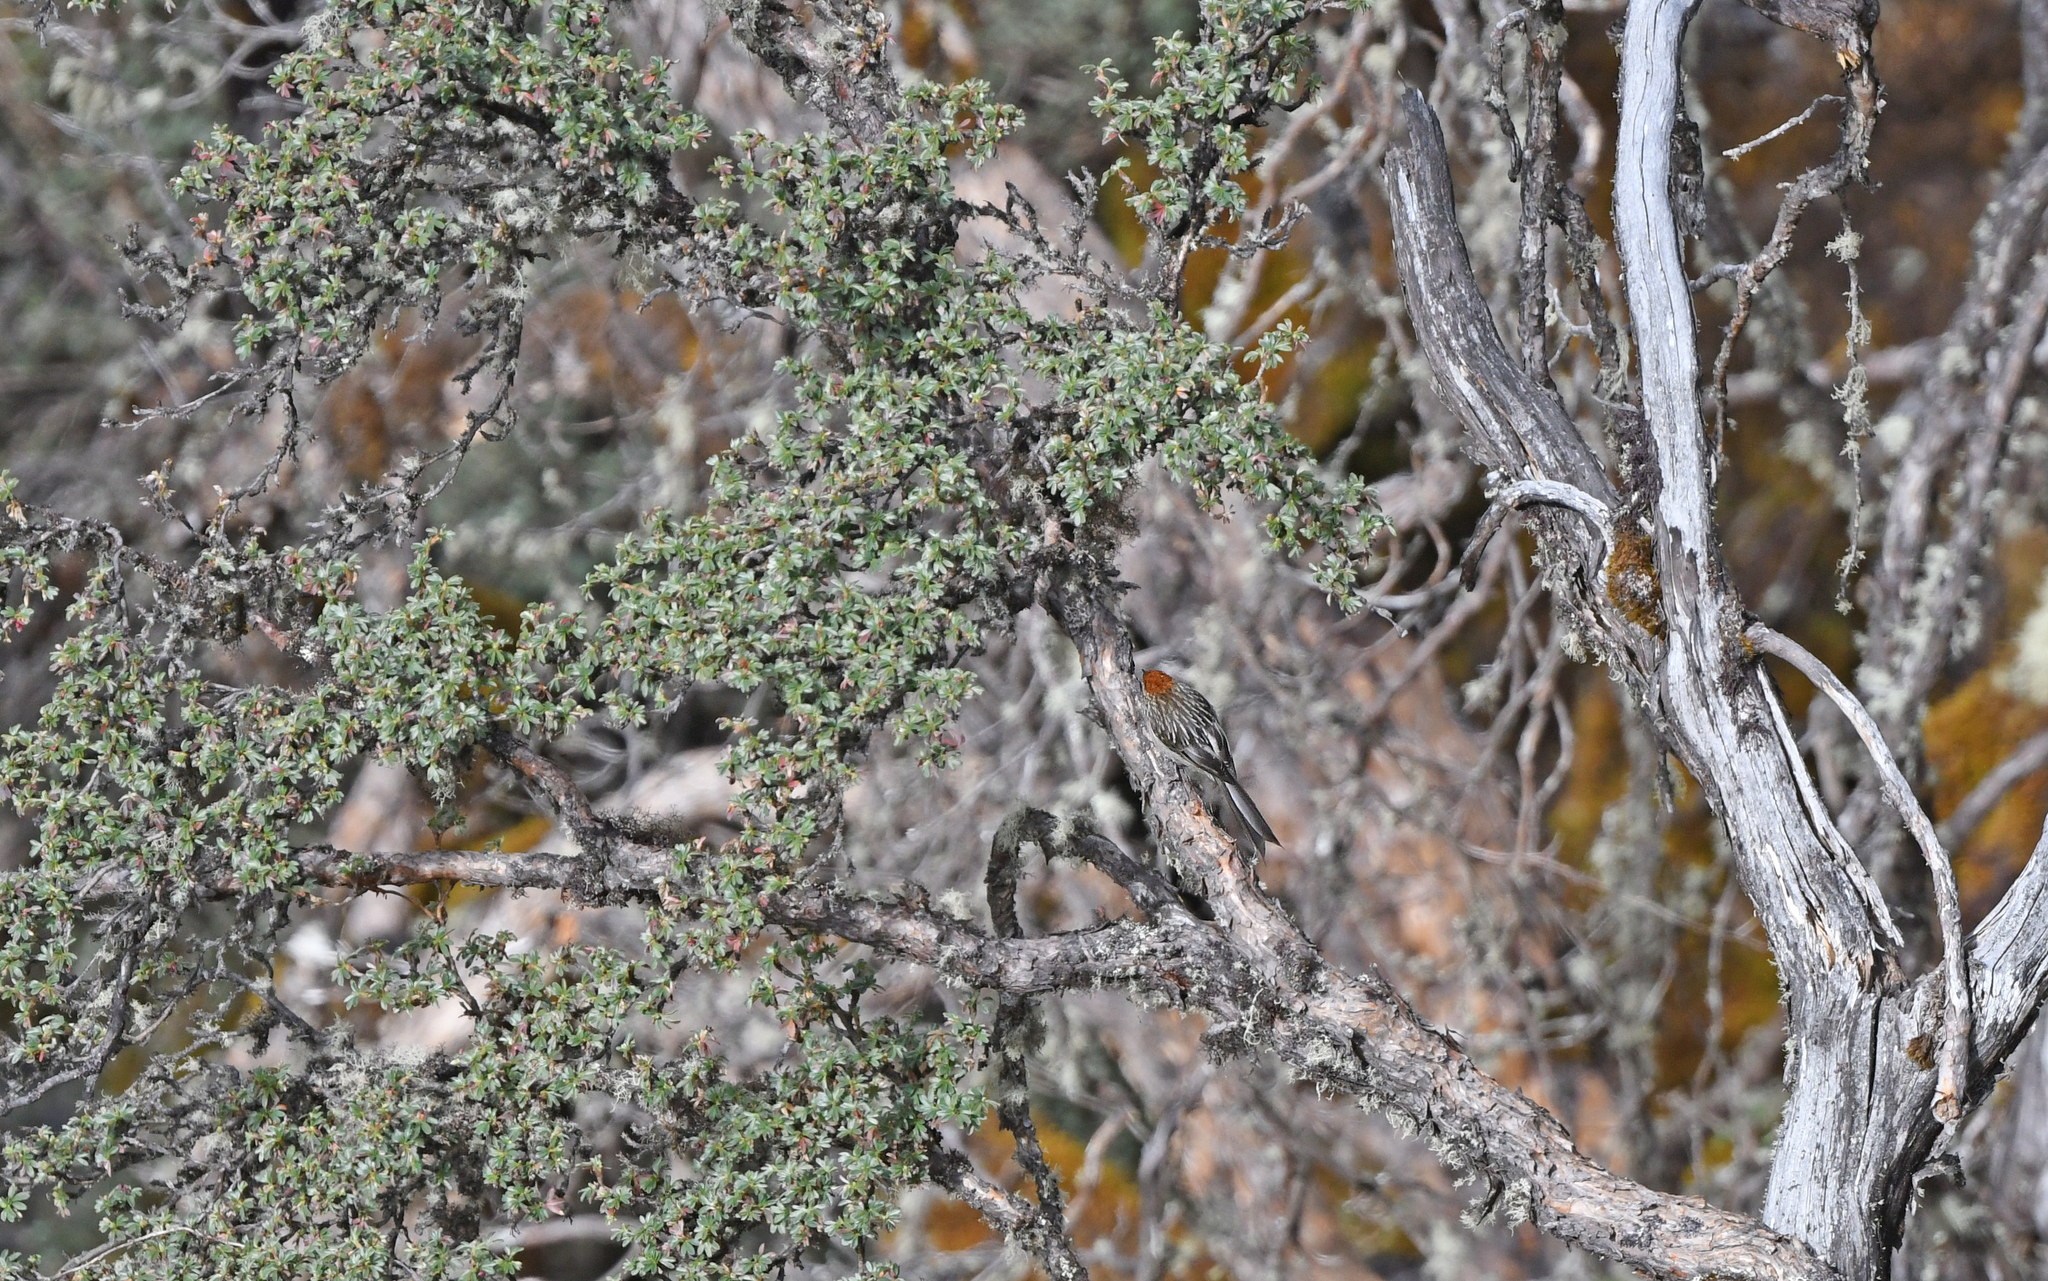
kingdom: Animalia
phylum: Chordata
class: Aves
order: Passeriformes
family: Furnariidae
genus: Leptasthenura
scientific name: Leptasthenura xenothorax
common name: White-browed tit-spinetail
